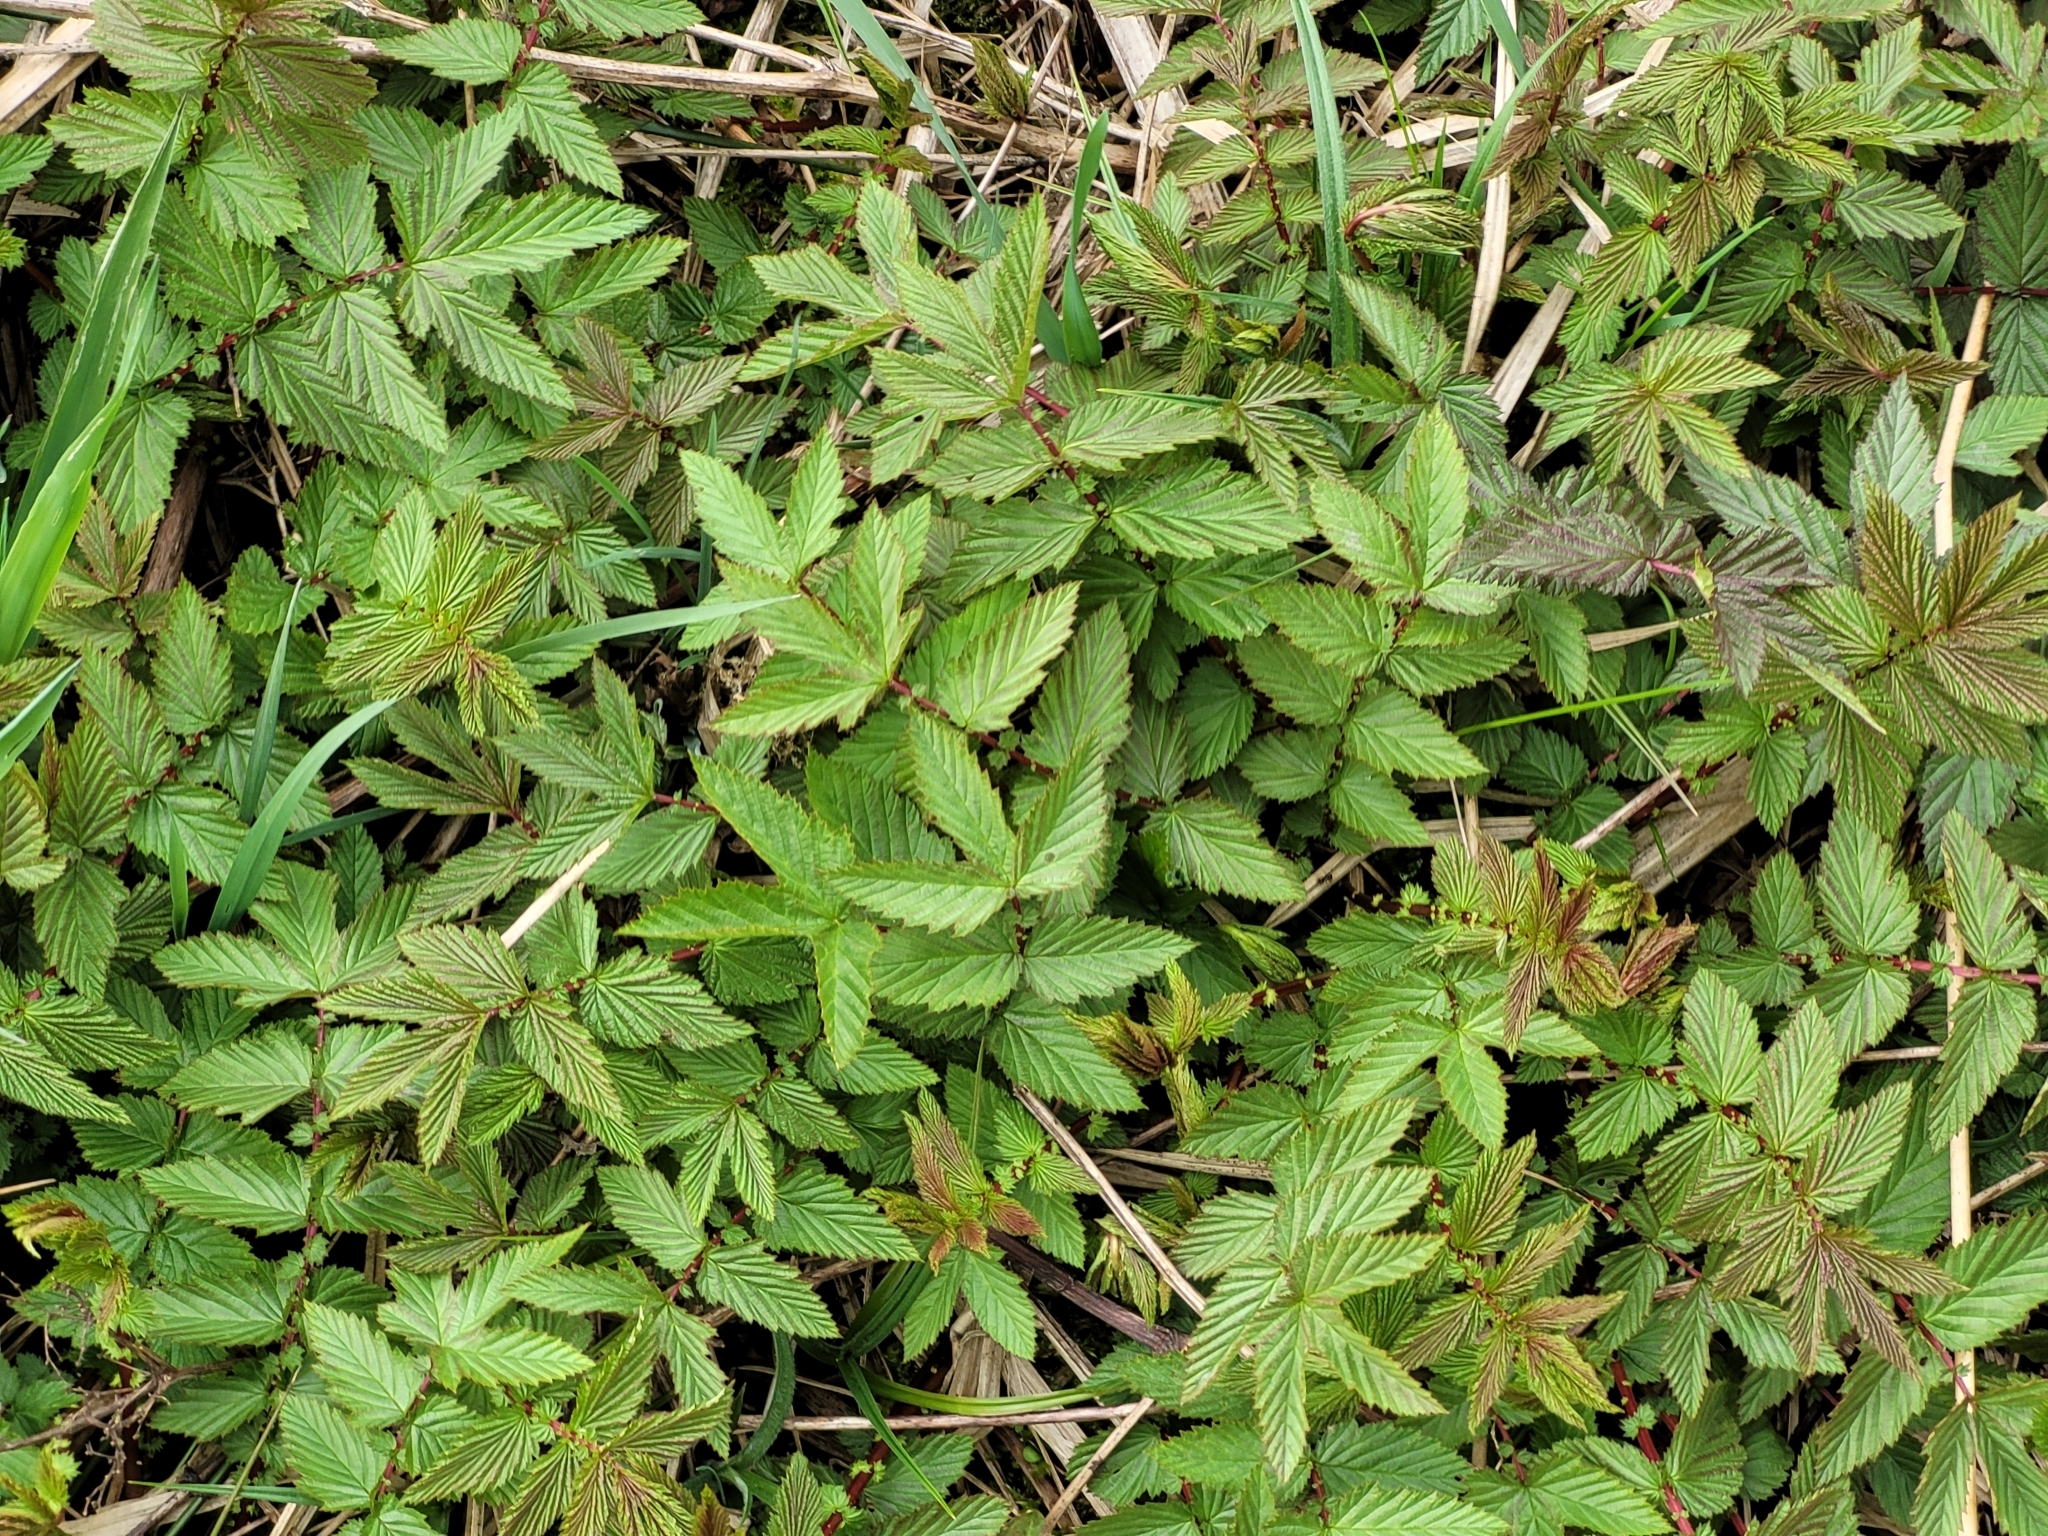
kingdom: Plantae
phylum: Tracheophyta
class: Magnoliopsida
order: Rosales
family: Rosaceae
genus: Filipendula
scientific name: Filipendula ulmaria
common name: Meadowsweet
